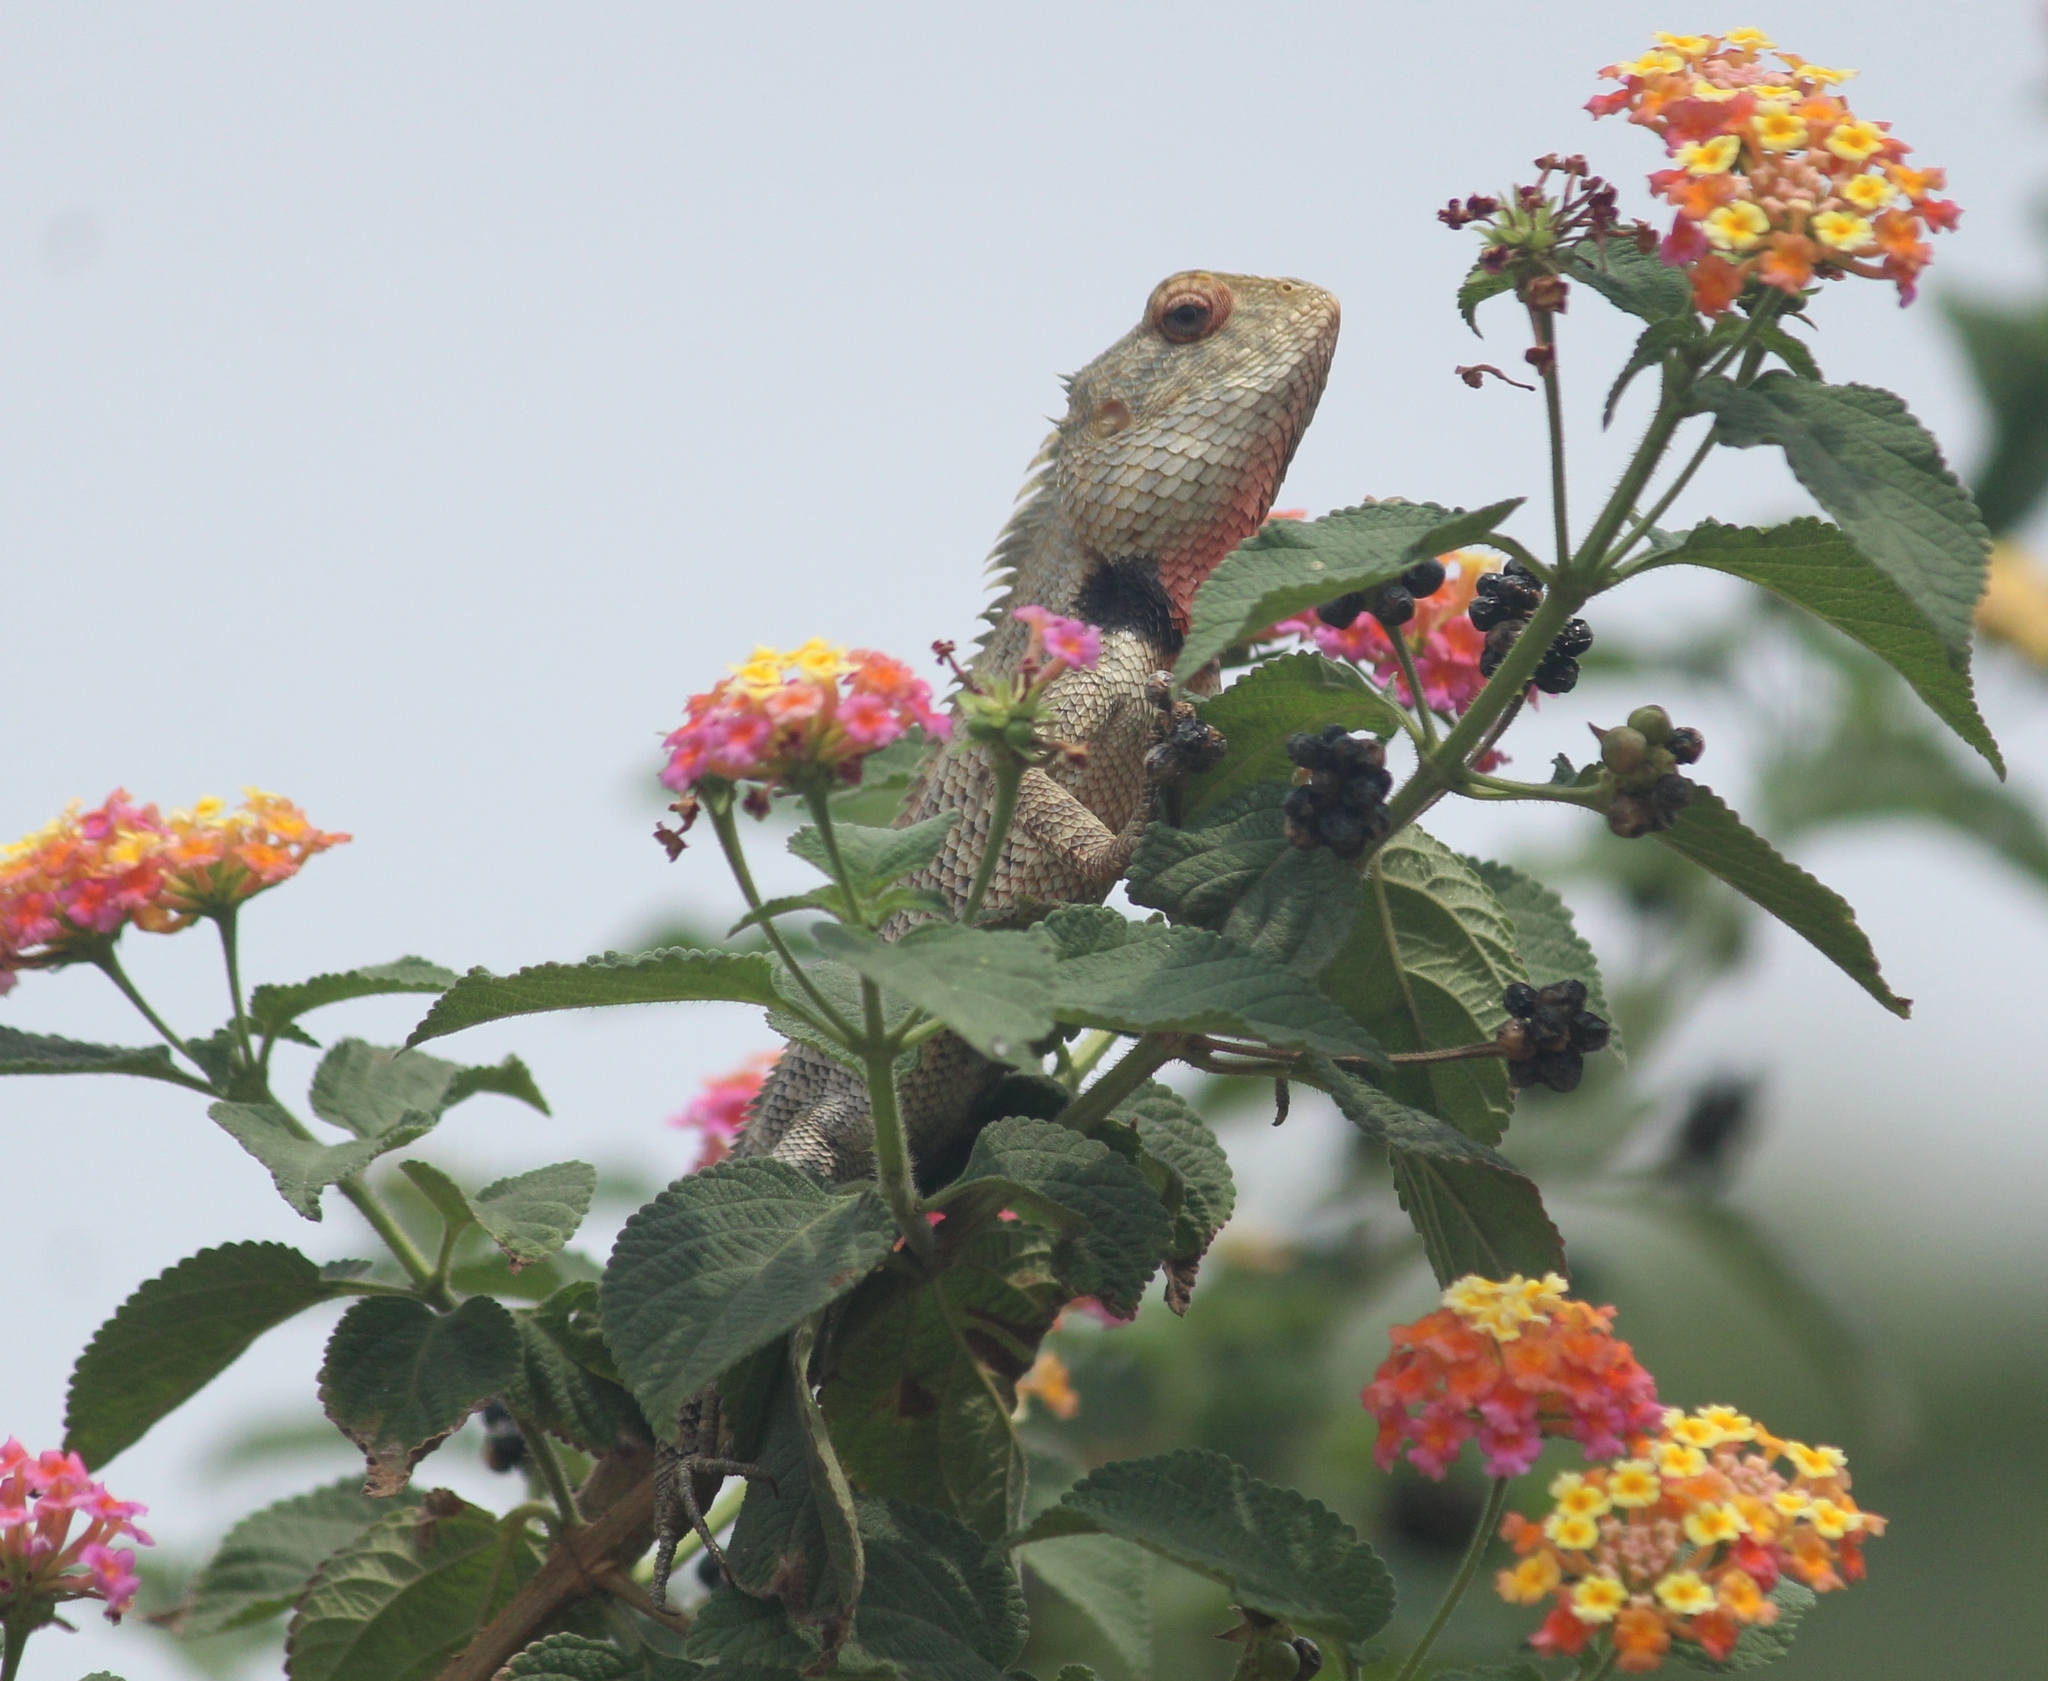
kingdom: Animalia
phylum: Chordata
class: Squamata
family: Agamidae
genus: Calotes
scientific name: Calotes versicolor
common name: Oriental garden lizard
